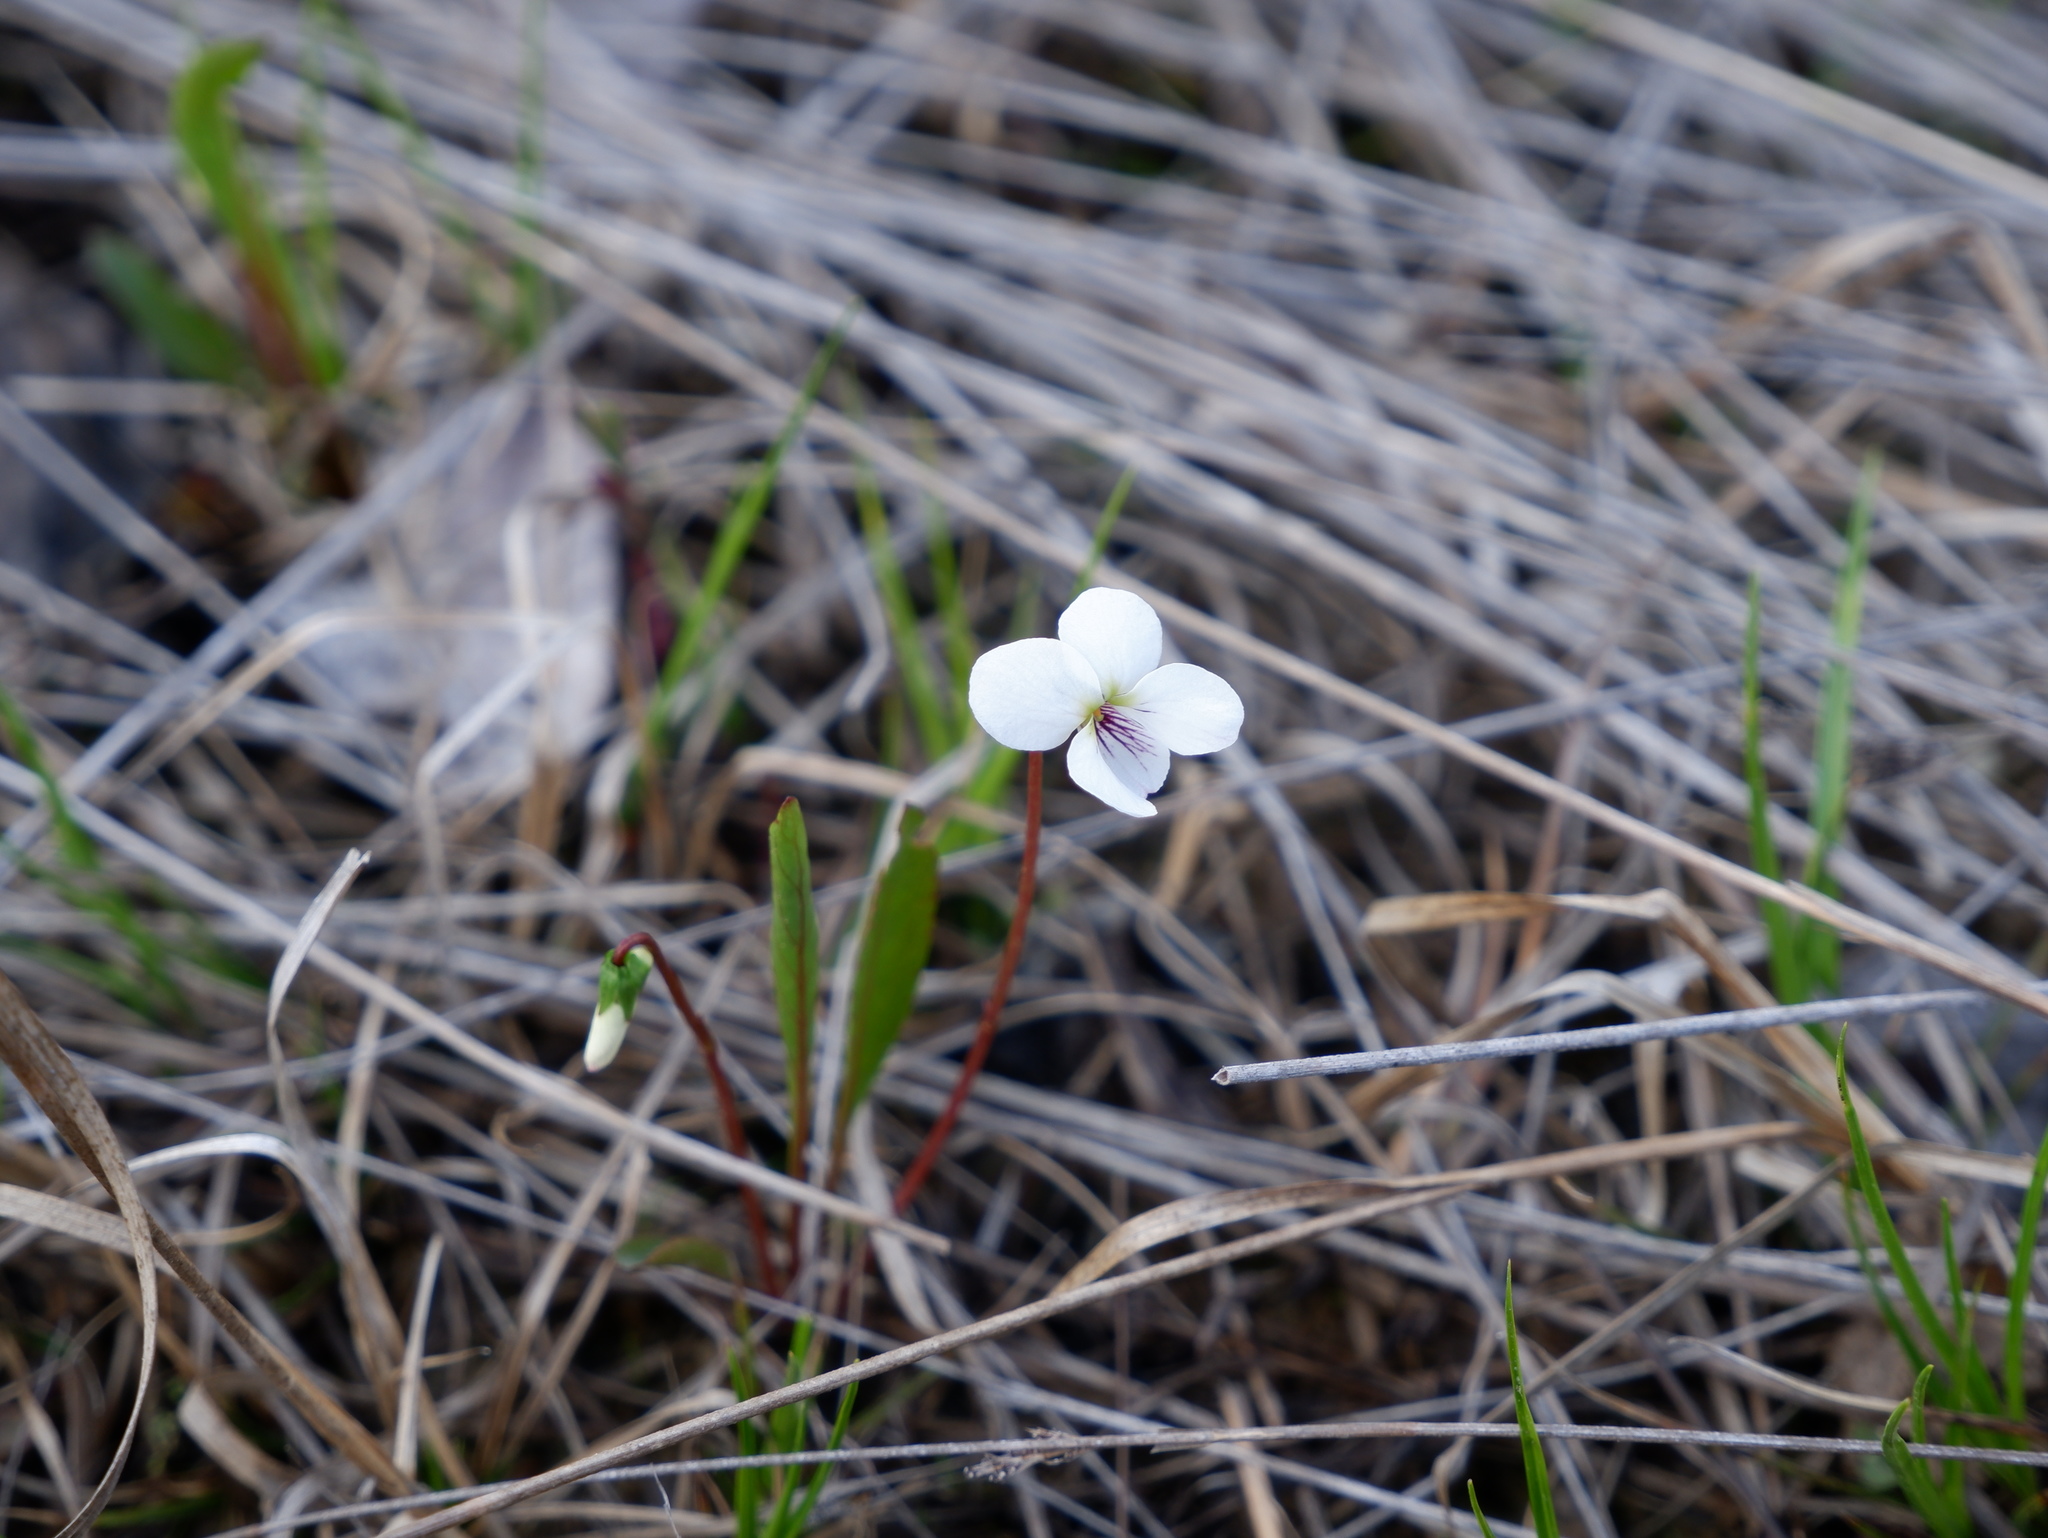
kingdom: Plantae
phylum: Tracheophyta
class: Magnoliopsida
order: Malpighiales
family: Violaceae
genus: Viola
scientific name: Viola lanceolata
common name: Bog white violet
